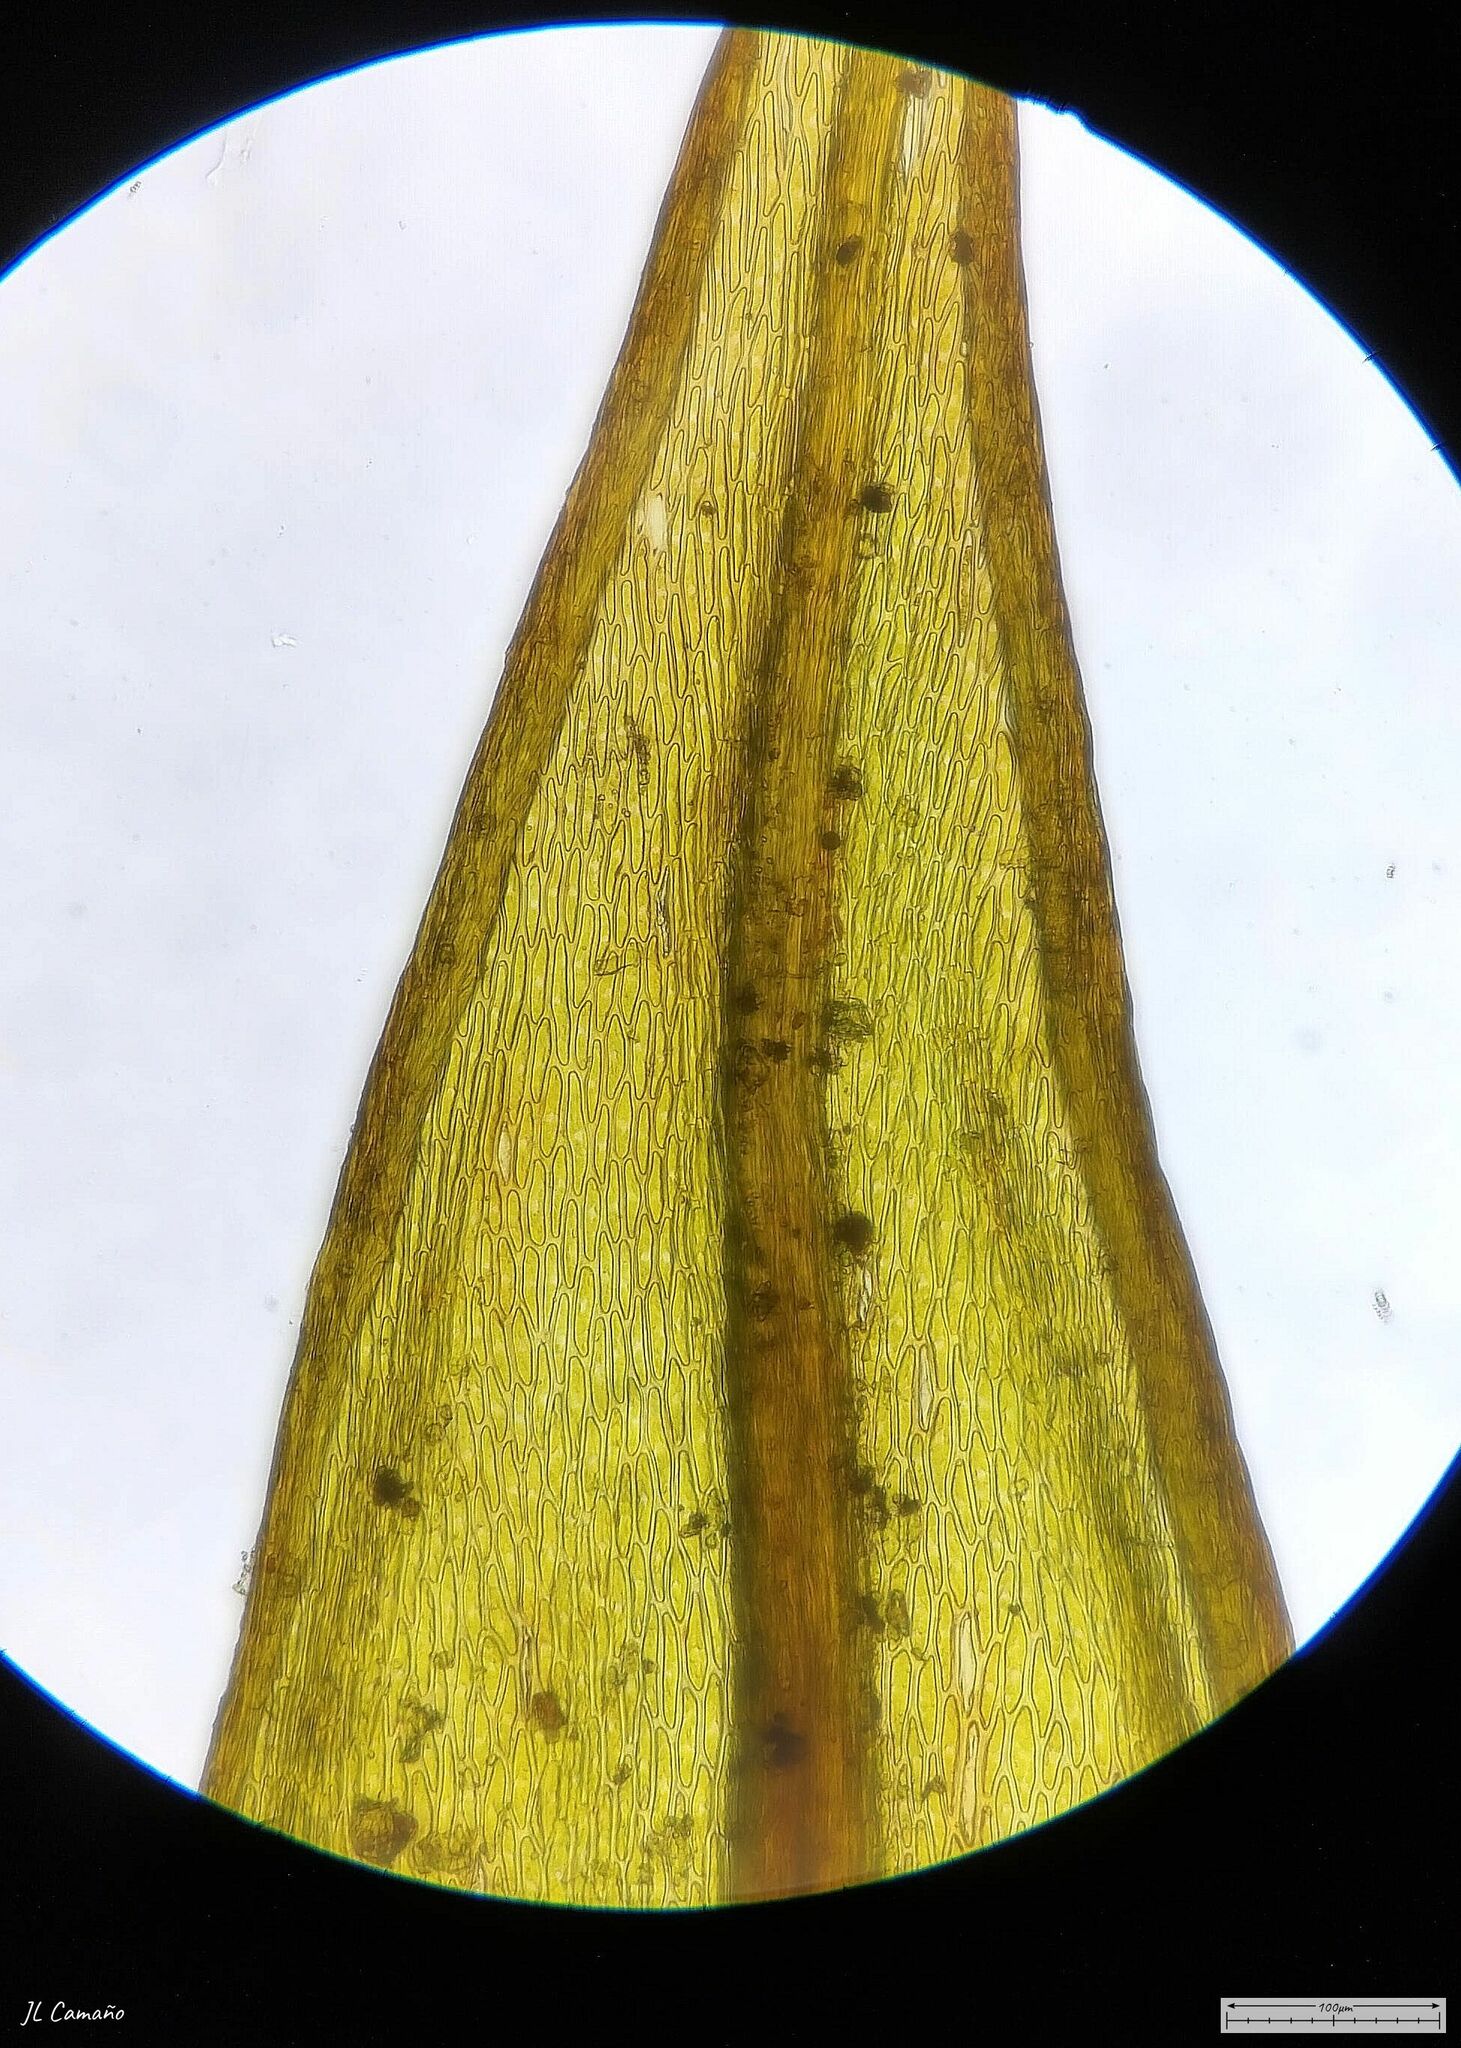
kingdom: Plantae
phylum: Bryophyta
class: Bryopsida
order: Bryales
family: Bryaceae
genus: Imbribryum
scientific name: Imbribryum mildeanum
